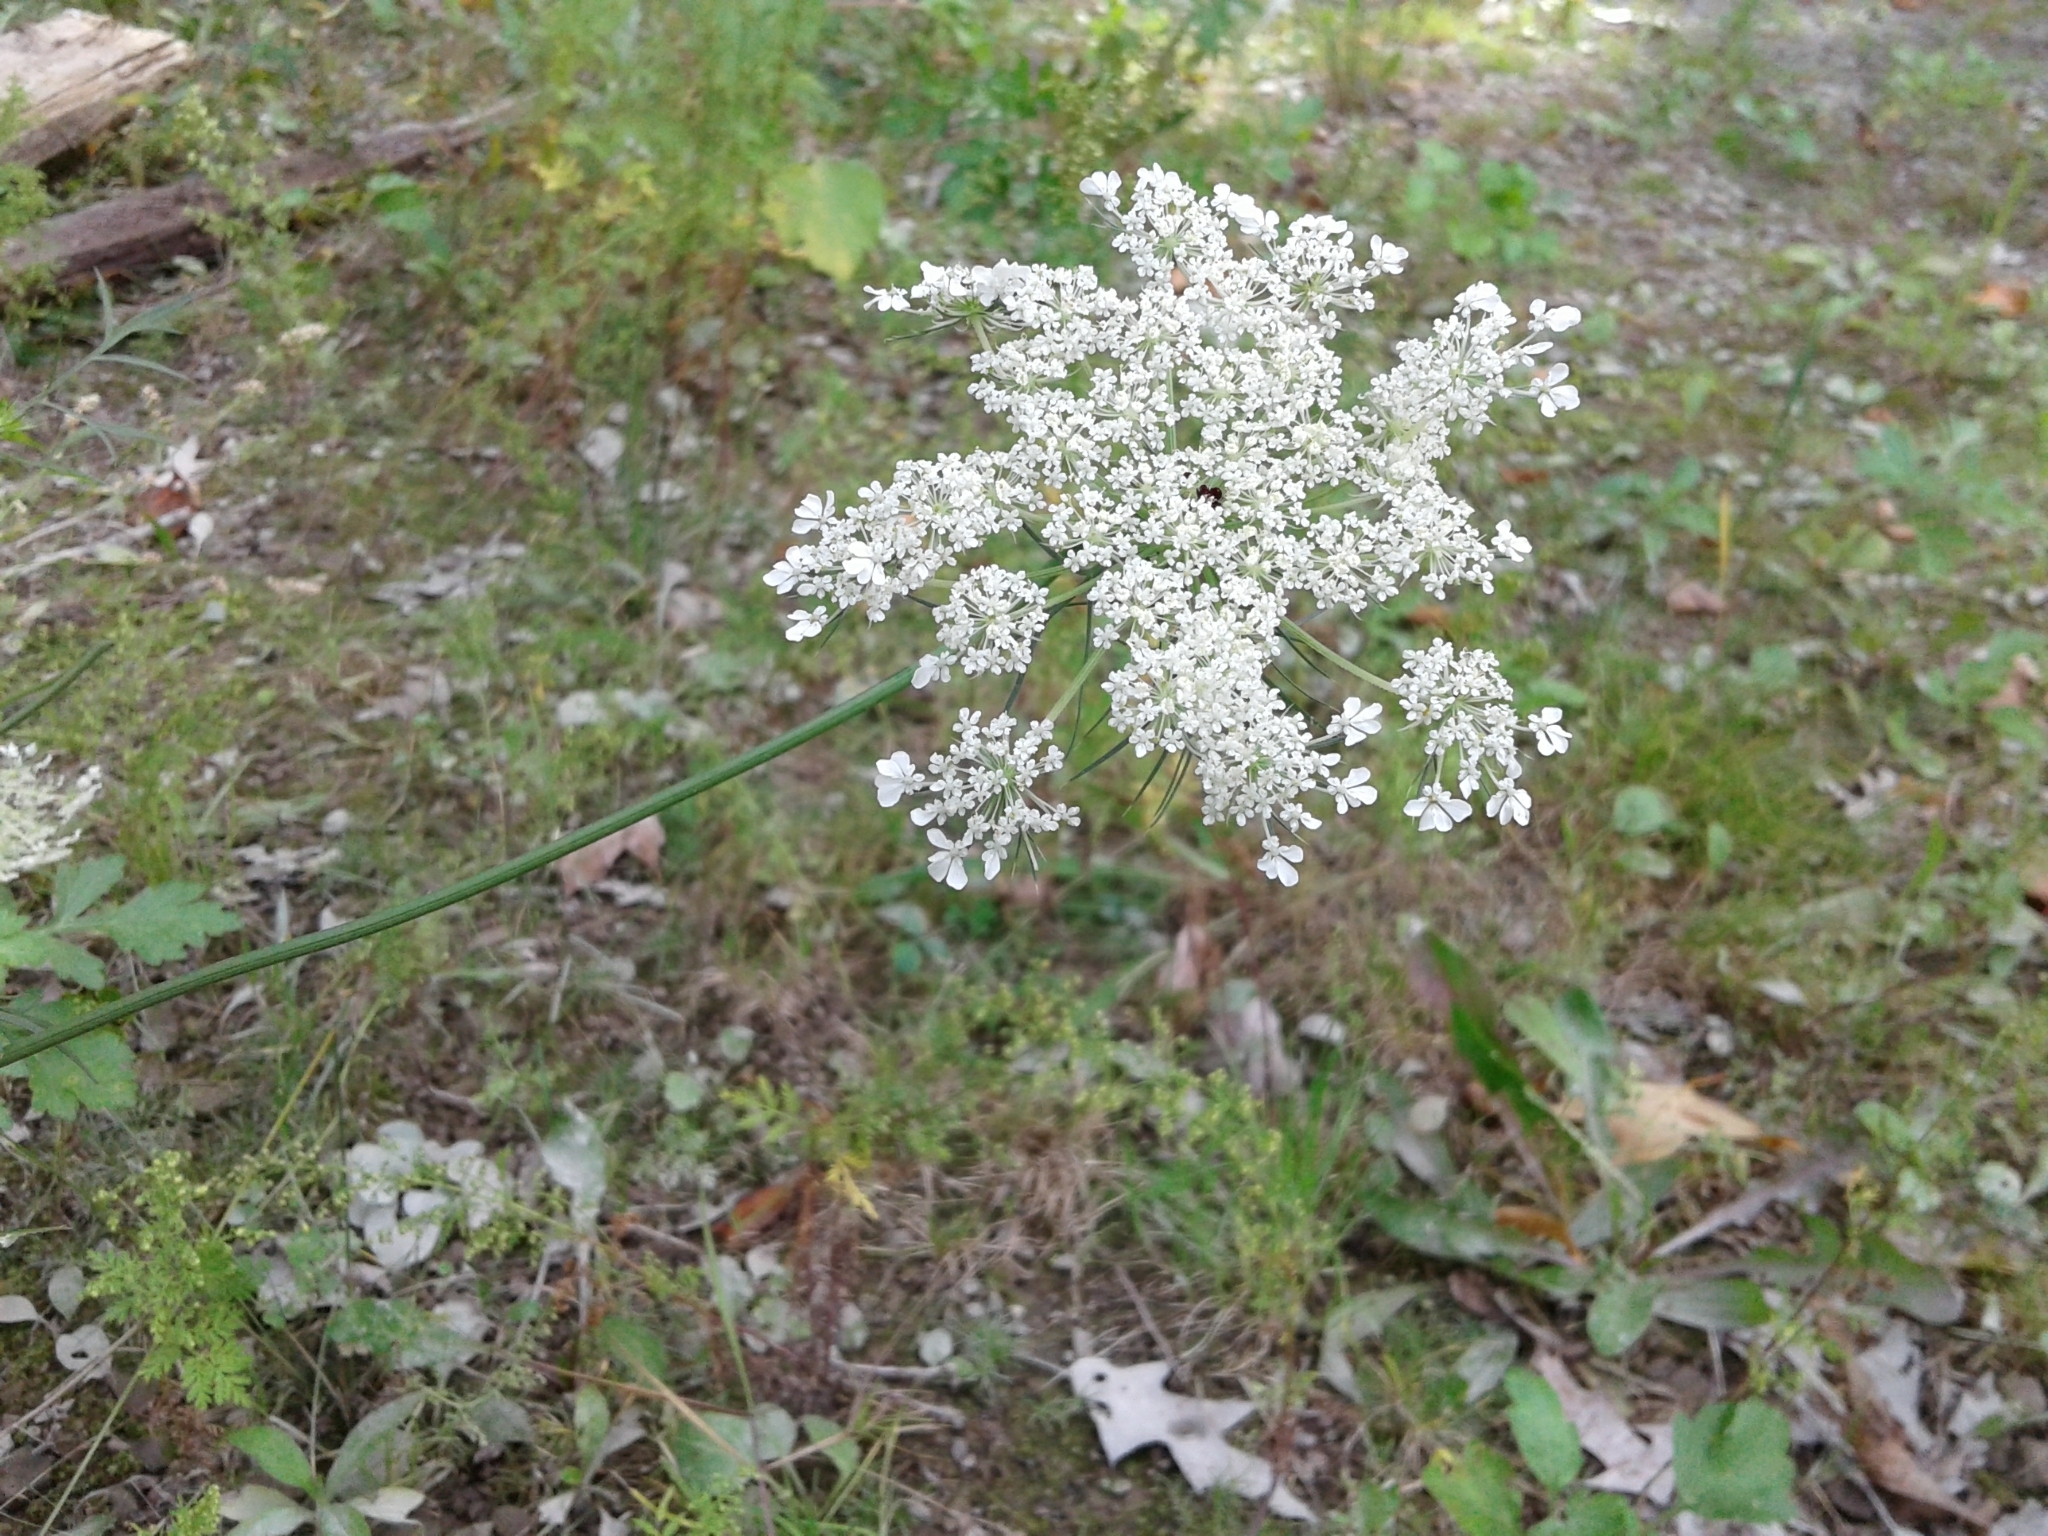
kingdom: Plantae
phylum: Tracheophyta
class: Magnoliopsida
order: Apiales
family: Apiaceae
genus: Daucus
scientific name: Daucus carota
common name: Wild carrot
